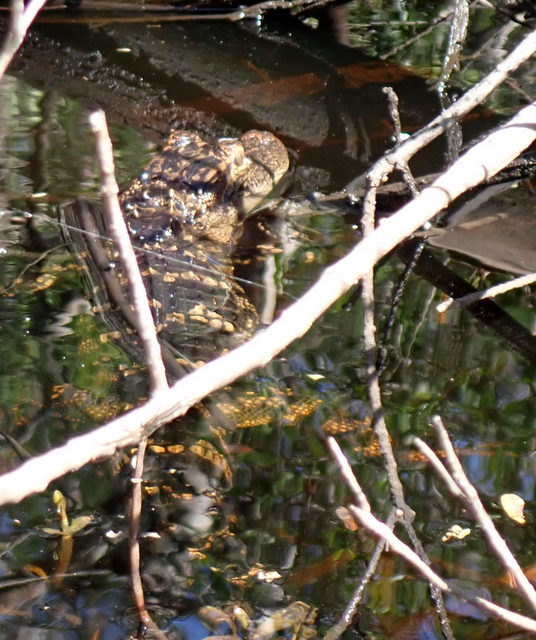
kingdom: Animalia
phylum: Chordata
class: Crocodylia
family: Alligatoridae
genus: Alligator
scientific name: Alligator mississippiensis
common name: American alligator
